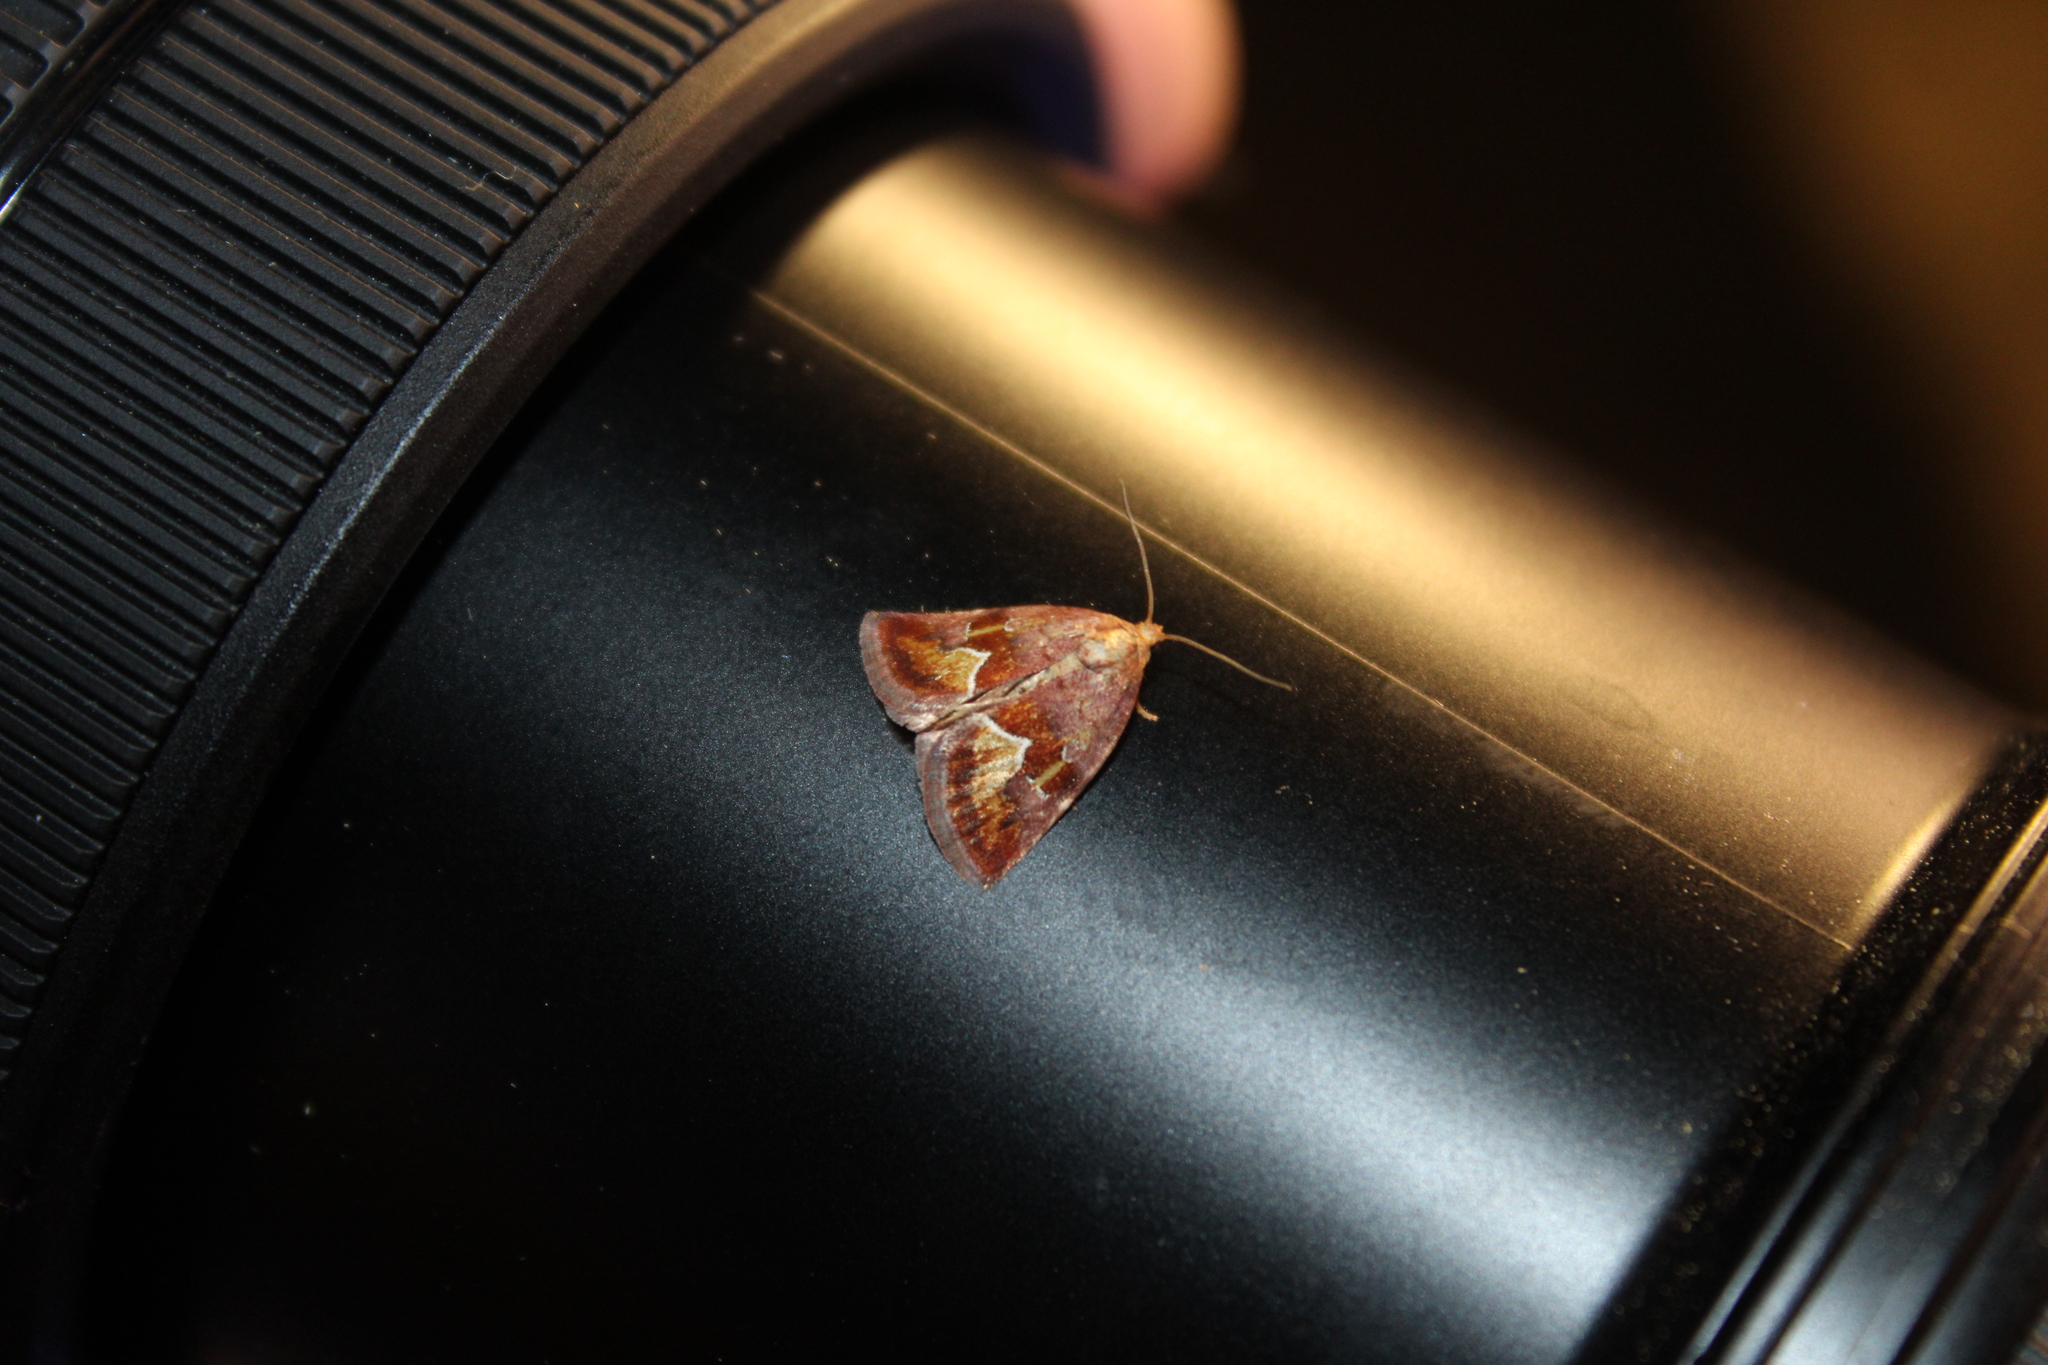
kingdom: Animalia
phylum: Arthropoda
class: Insecta
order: Lepidoptera
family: Noctuidae
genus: Deltote
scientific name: Deltote bellicula
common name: Bog glyph
